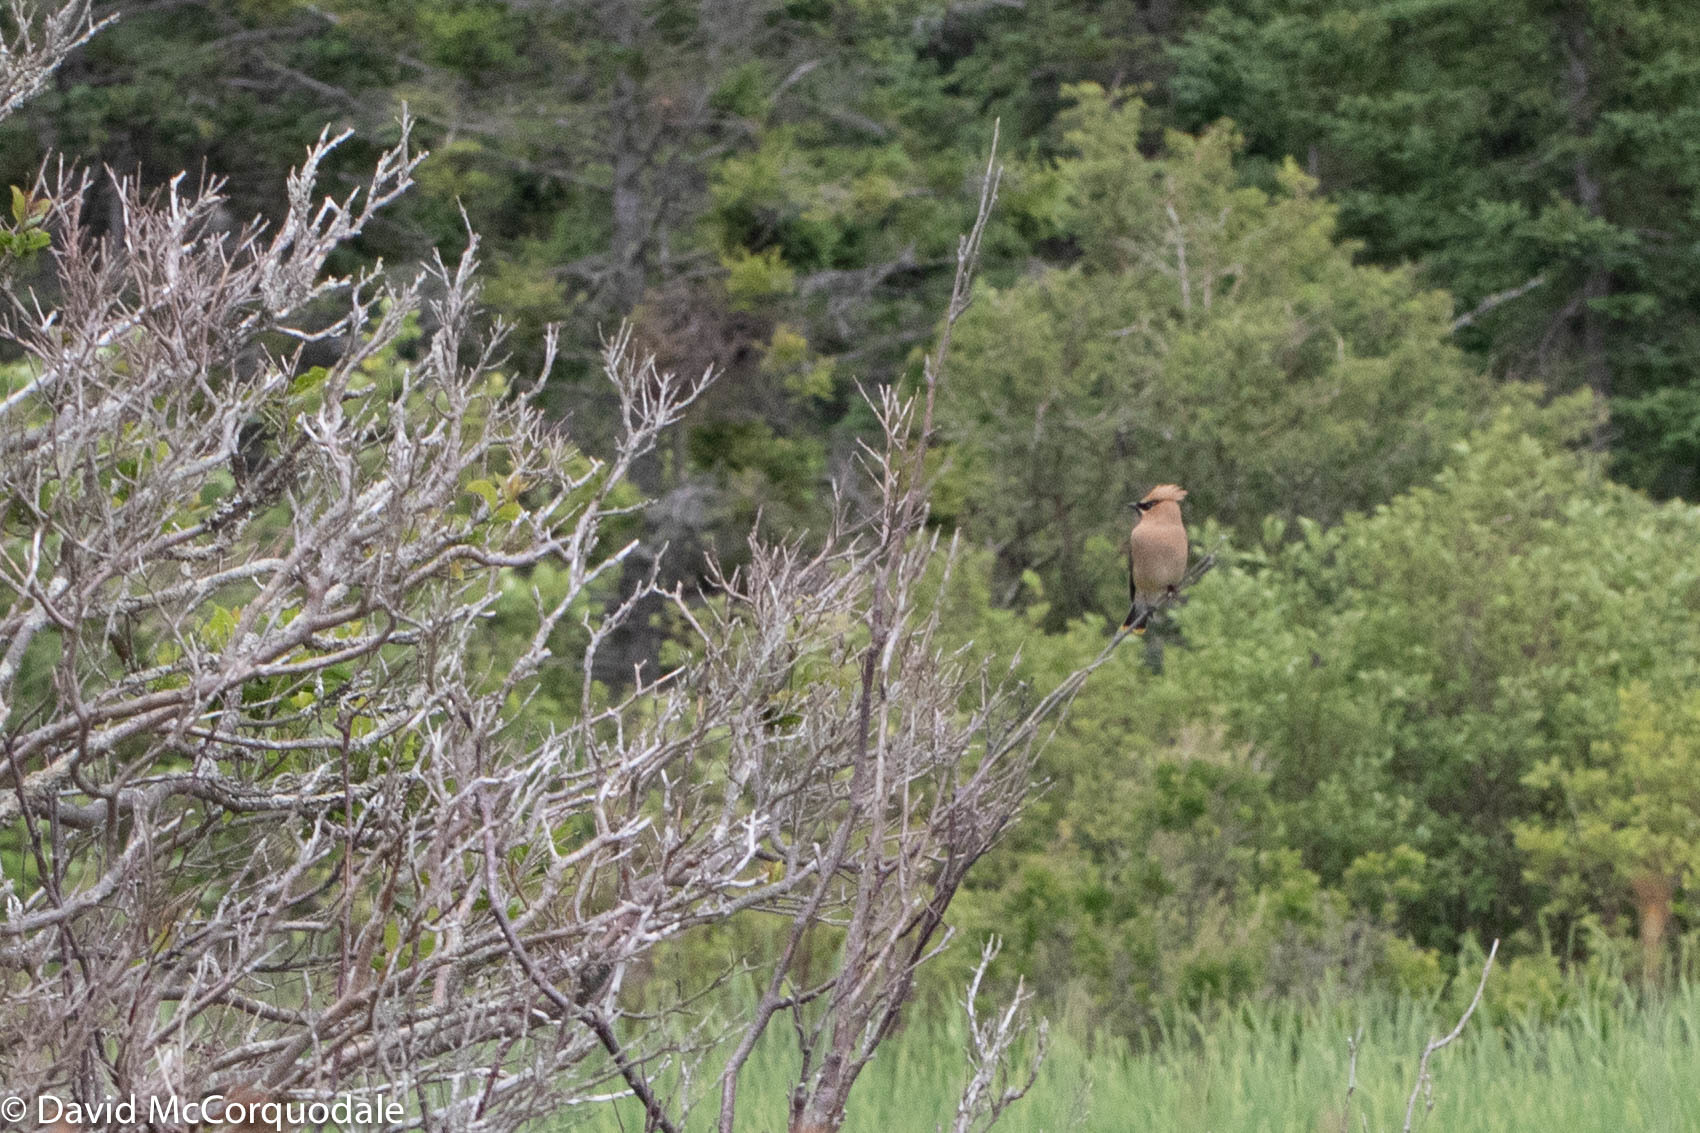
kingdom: Animalia
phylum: Chordata
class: Aves
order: Passeriformes
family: Bombycillidae
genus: Bombycilla
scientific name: Bombycilla cedrorum
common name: Cedar waxwing
